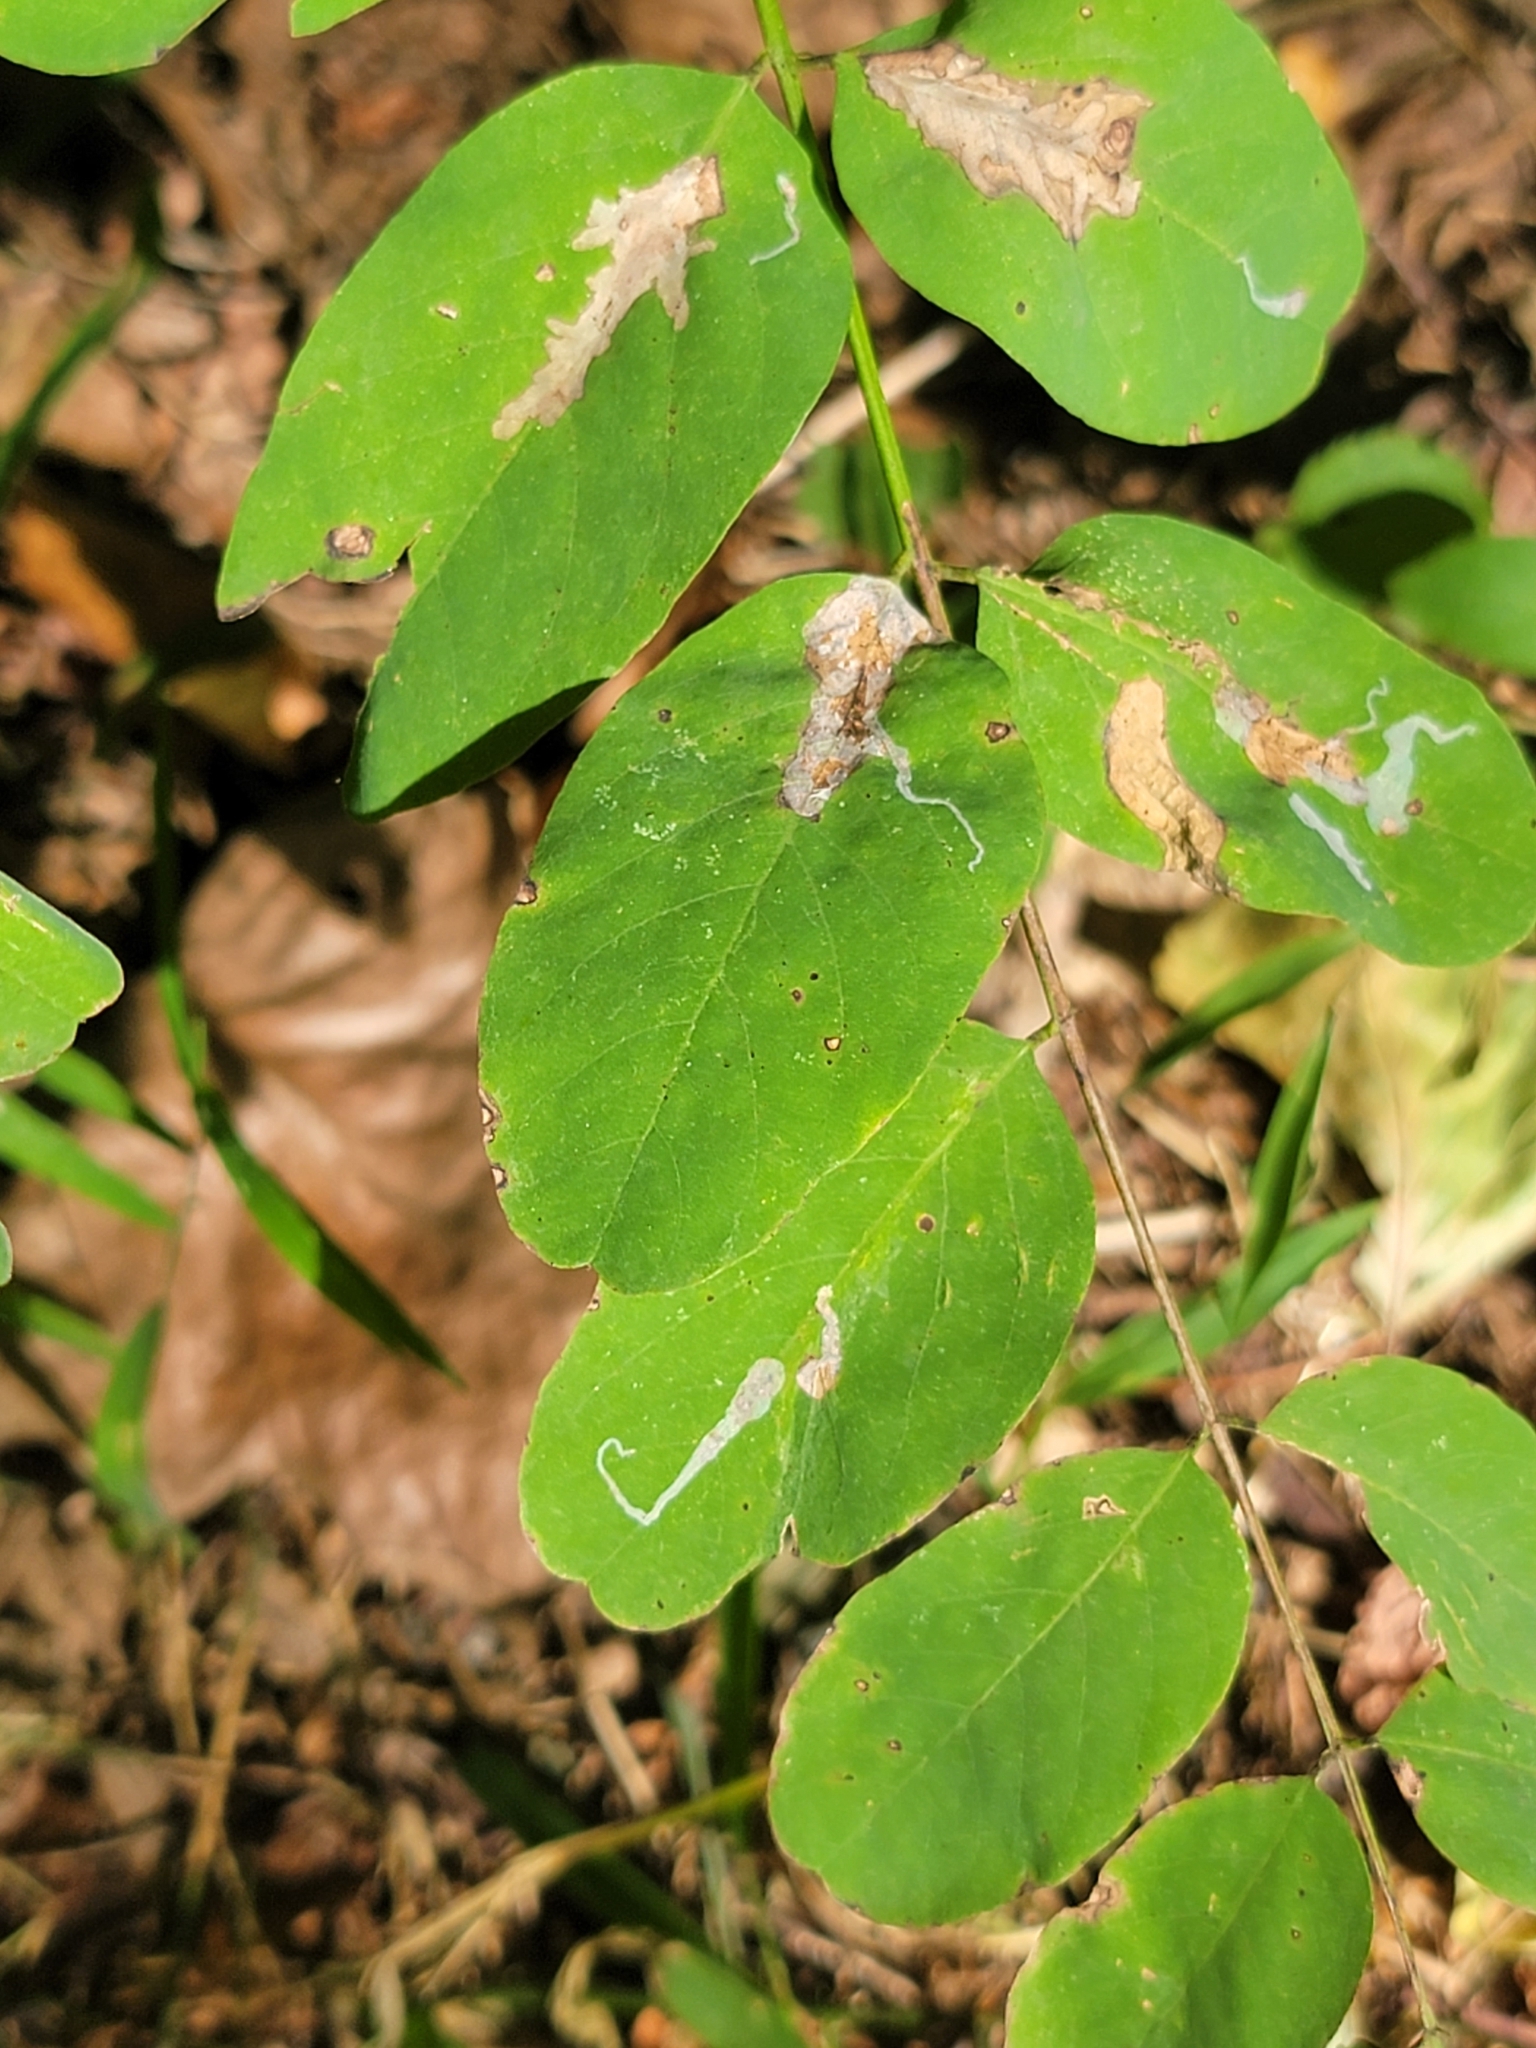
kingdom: Animalia
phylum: Arthropoda
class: Insecta
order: Lepidoptera
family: Gracillariidae
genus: Parectopa
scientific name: Parectopa robiniella
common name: Locust digitate leafminer
